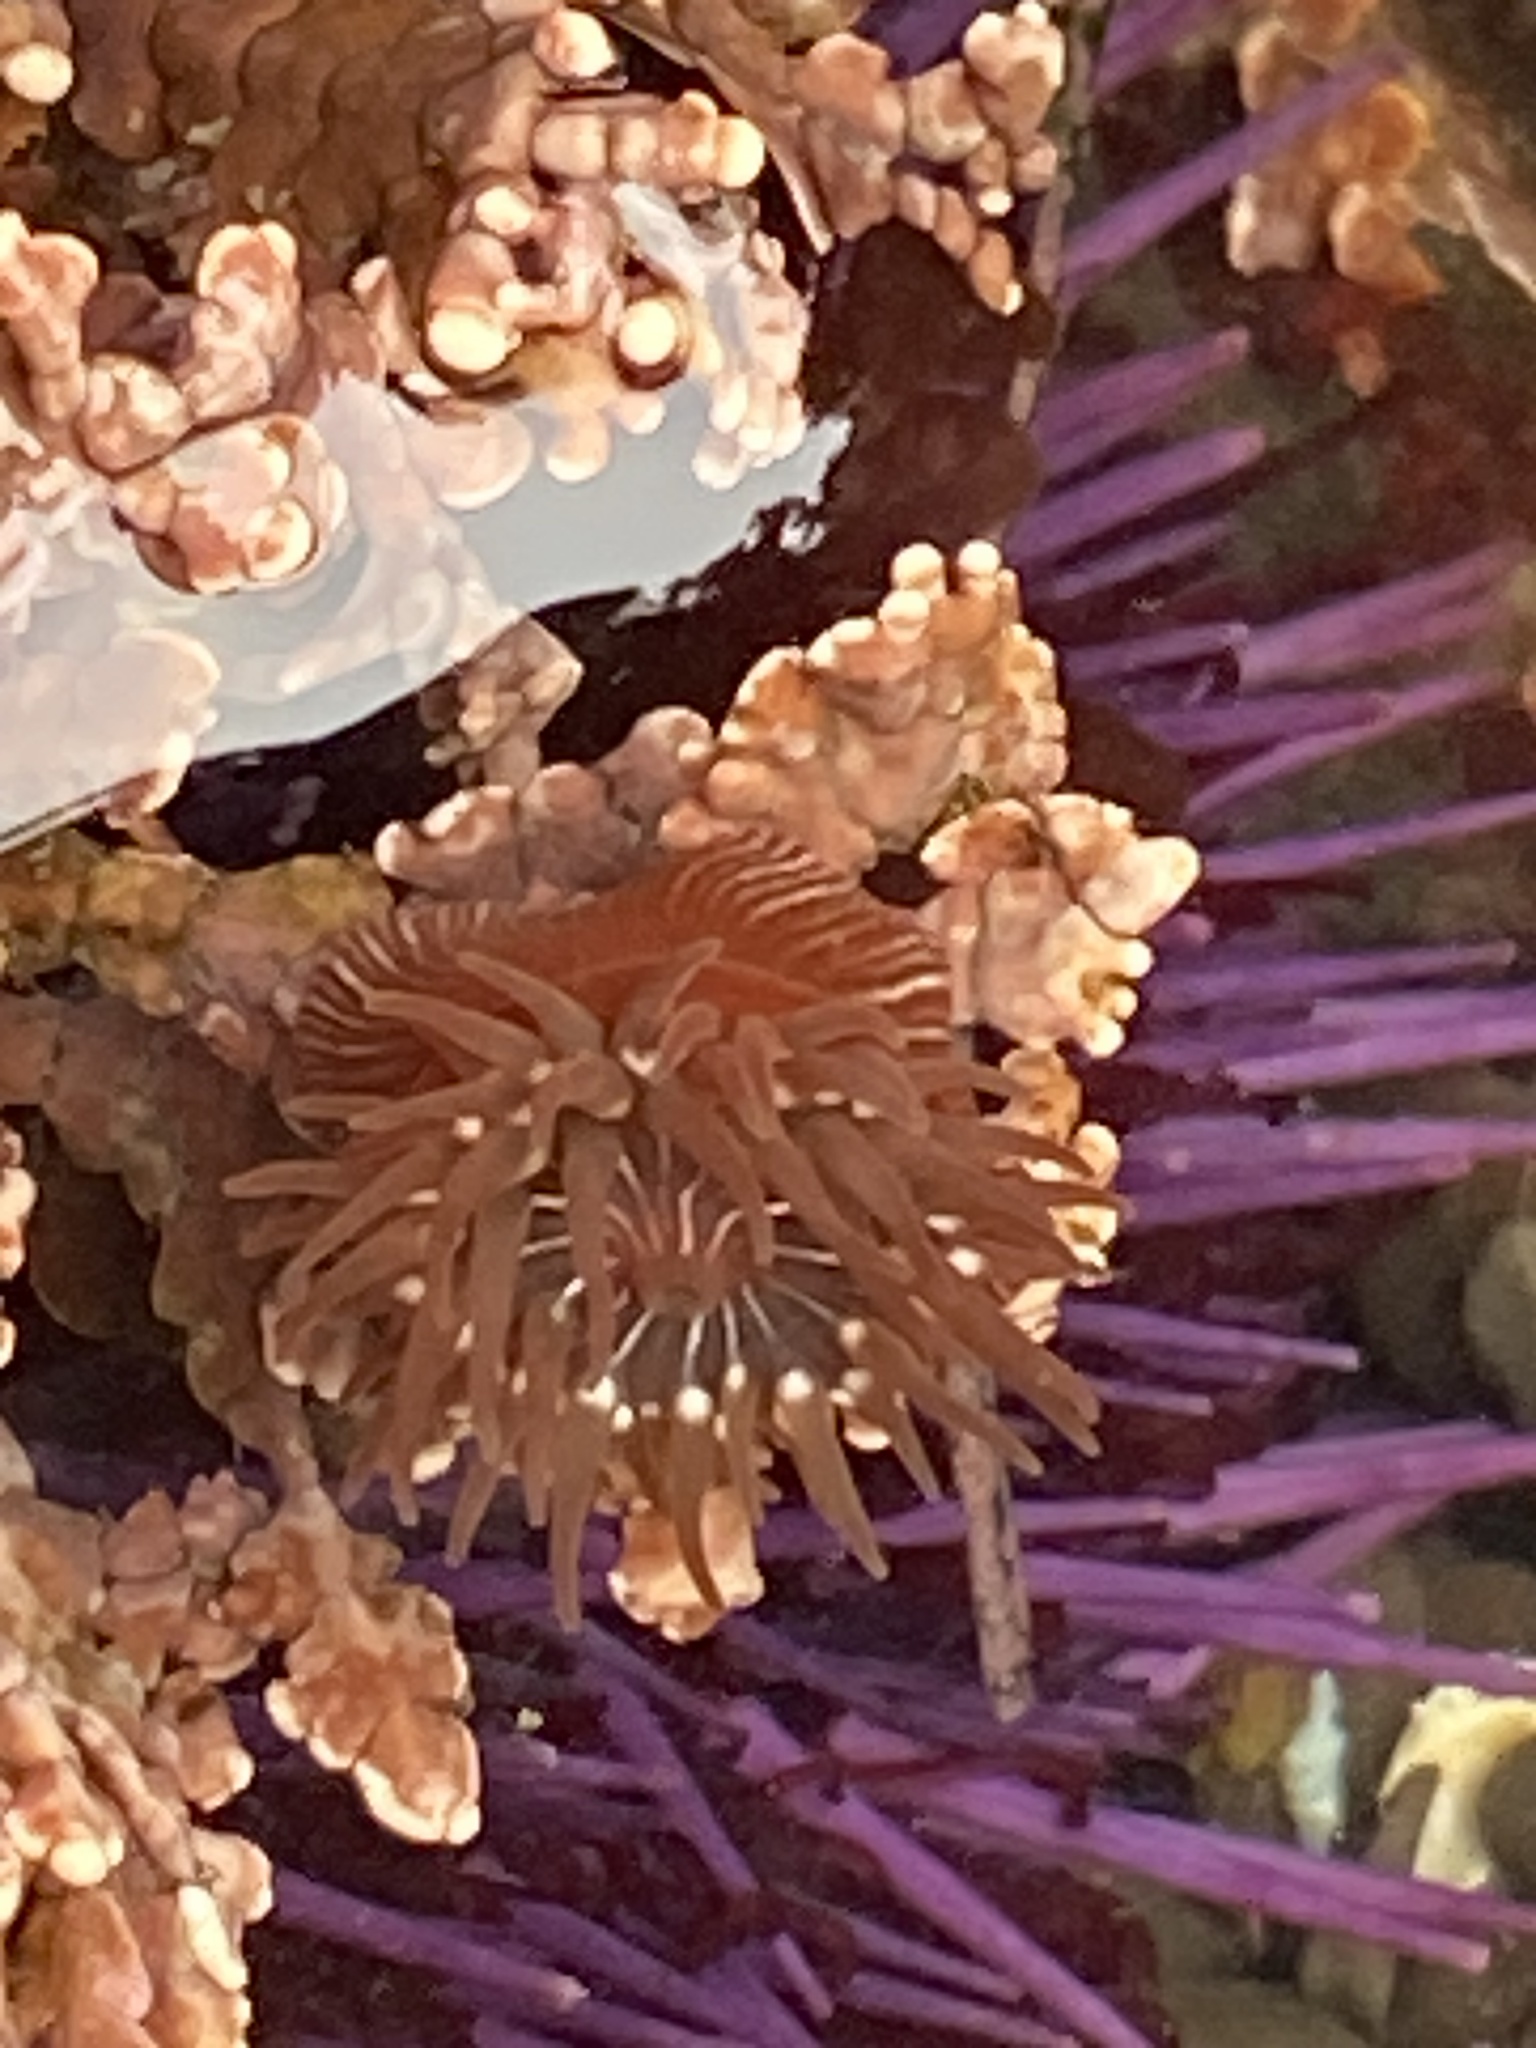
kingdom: Animalia
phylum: Cnidaria
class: Anthozoa
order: Actiniaria
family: Actiniidae
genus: Epiactis
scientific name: Epiactis prolifera
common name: Brooding anemone
